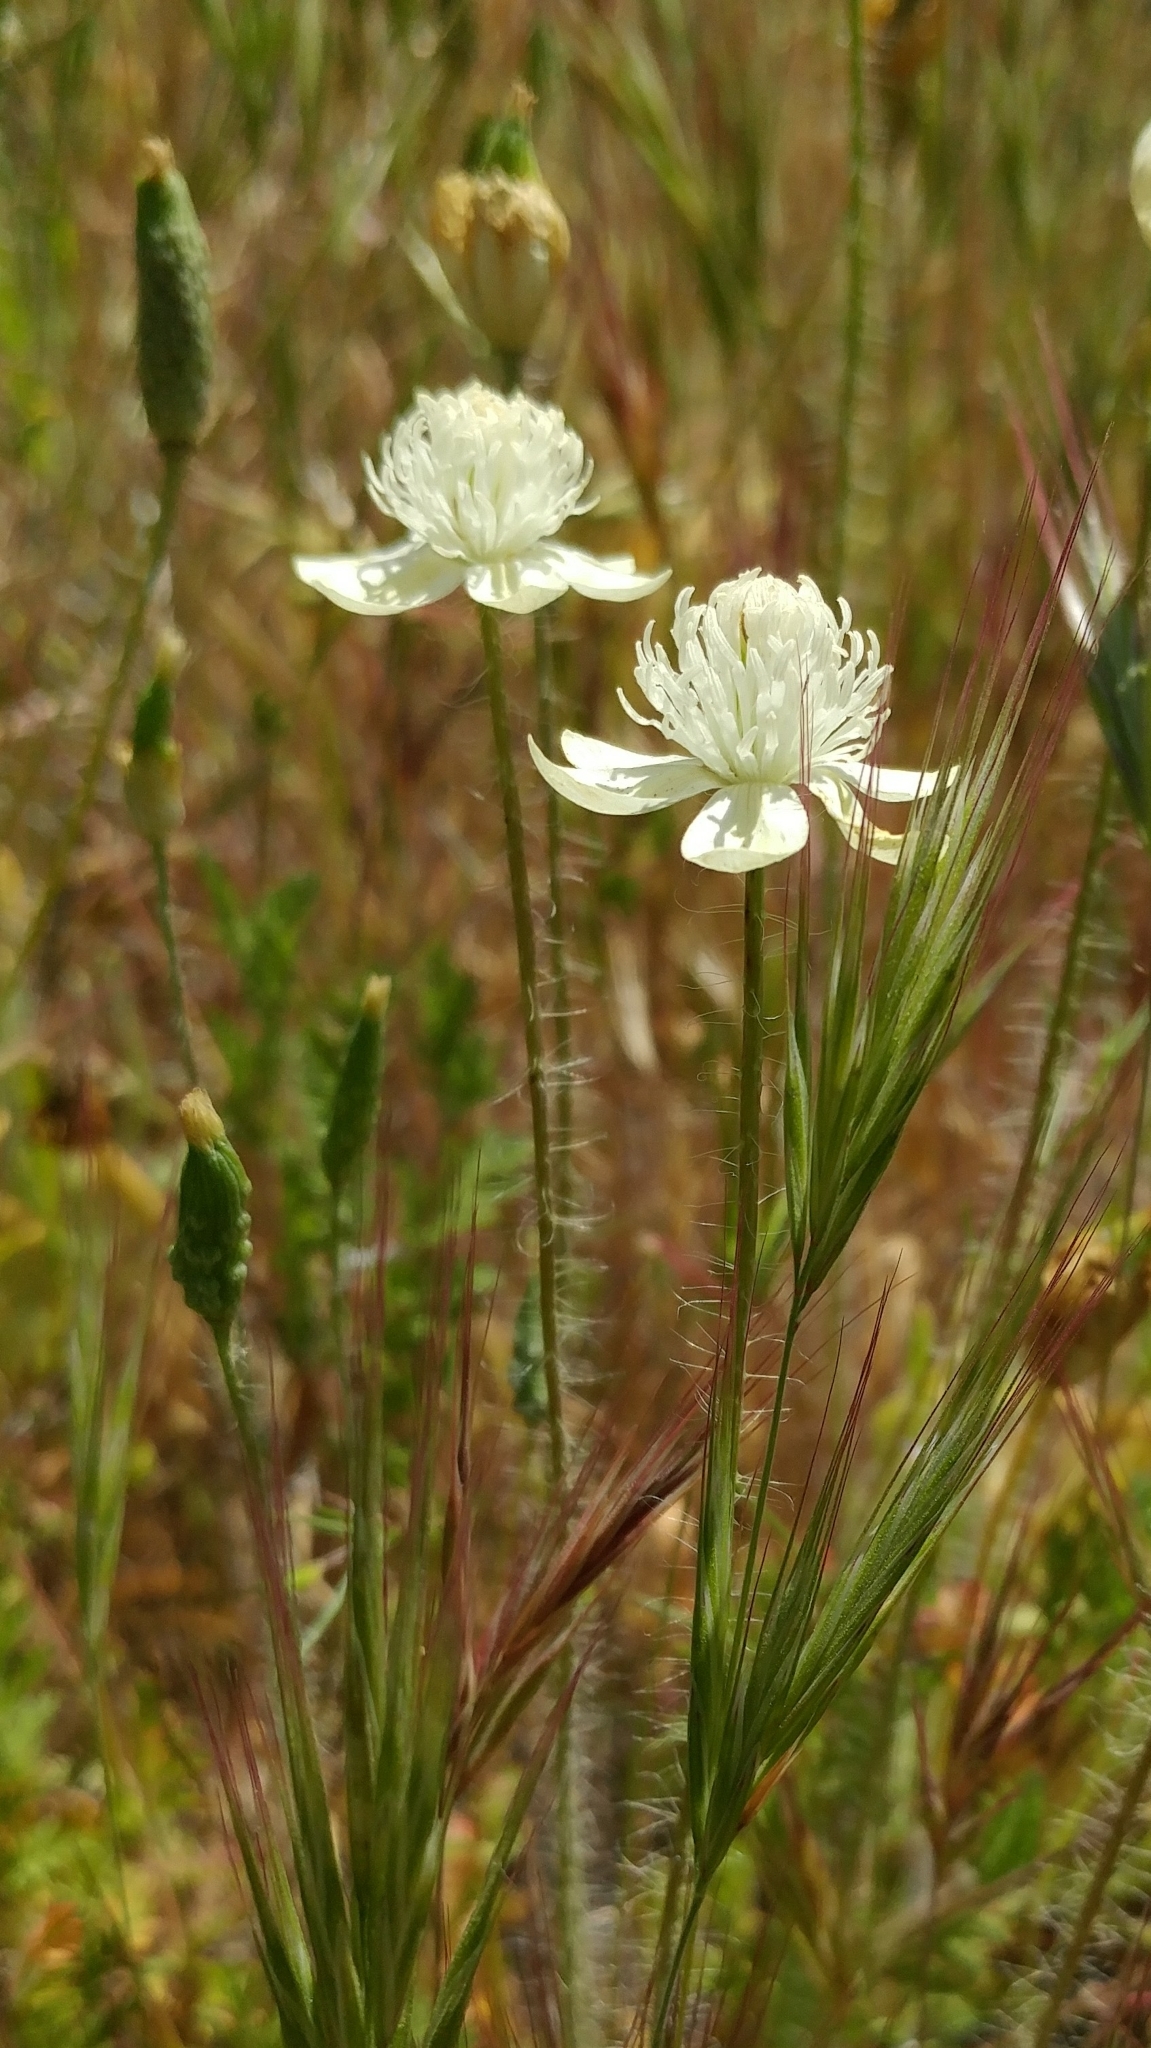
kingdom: Plantae
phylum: Tracheophyta
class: Magnoliopsida
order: Ranunculales
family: Papaveraceae
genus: Platystemon
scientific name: Platystemon californicus
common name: Cream-cups
